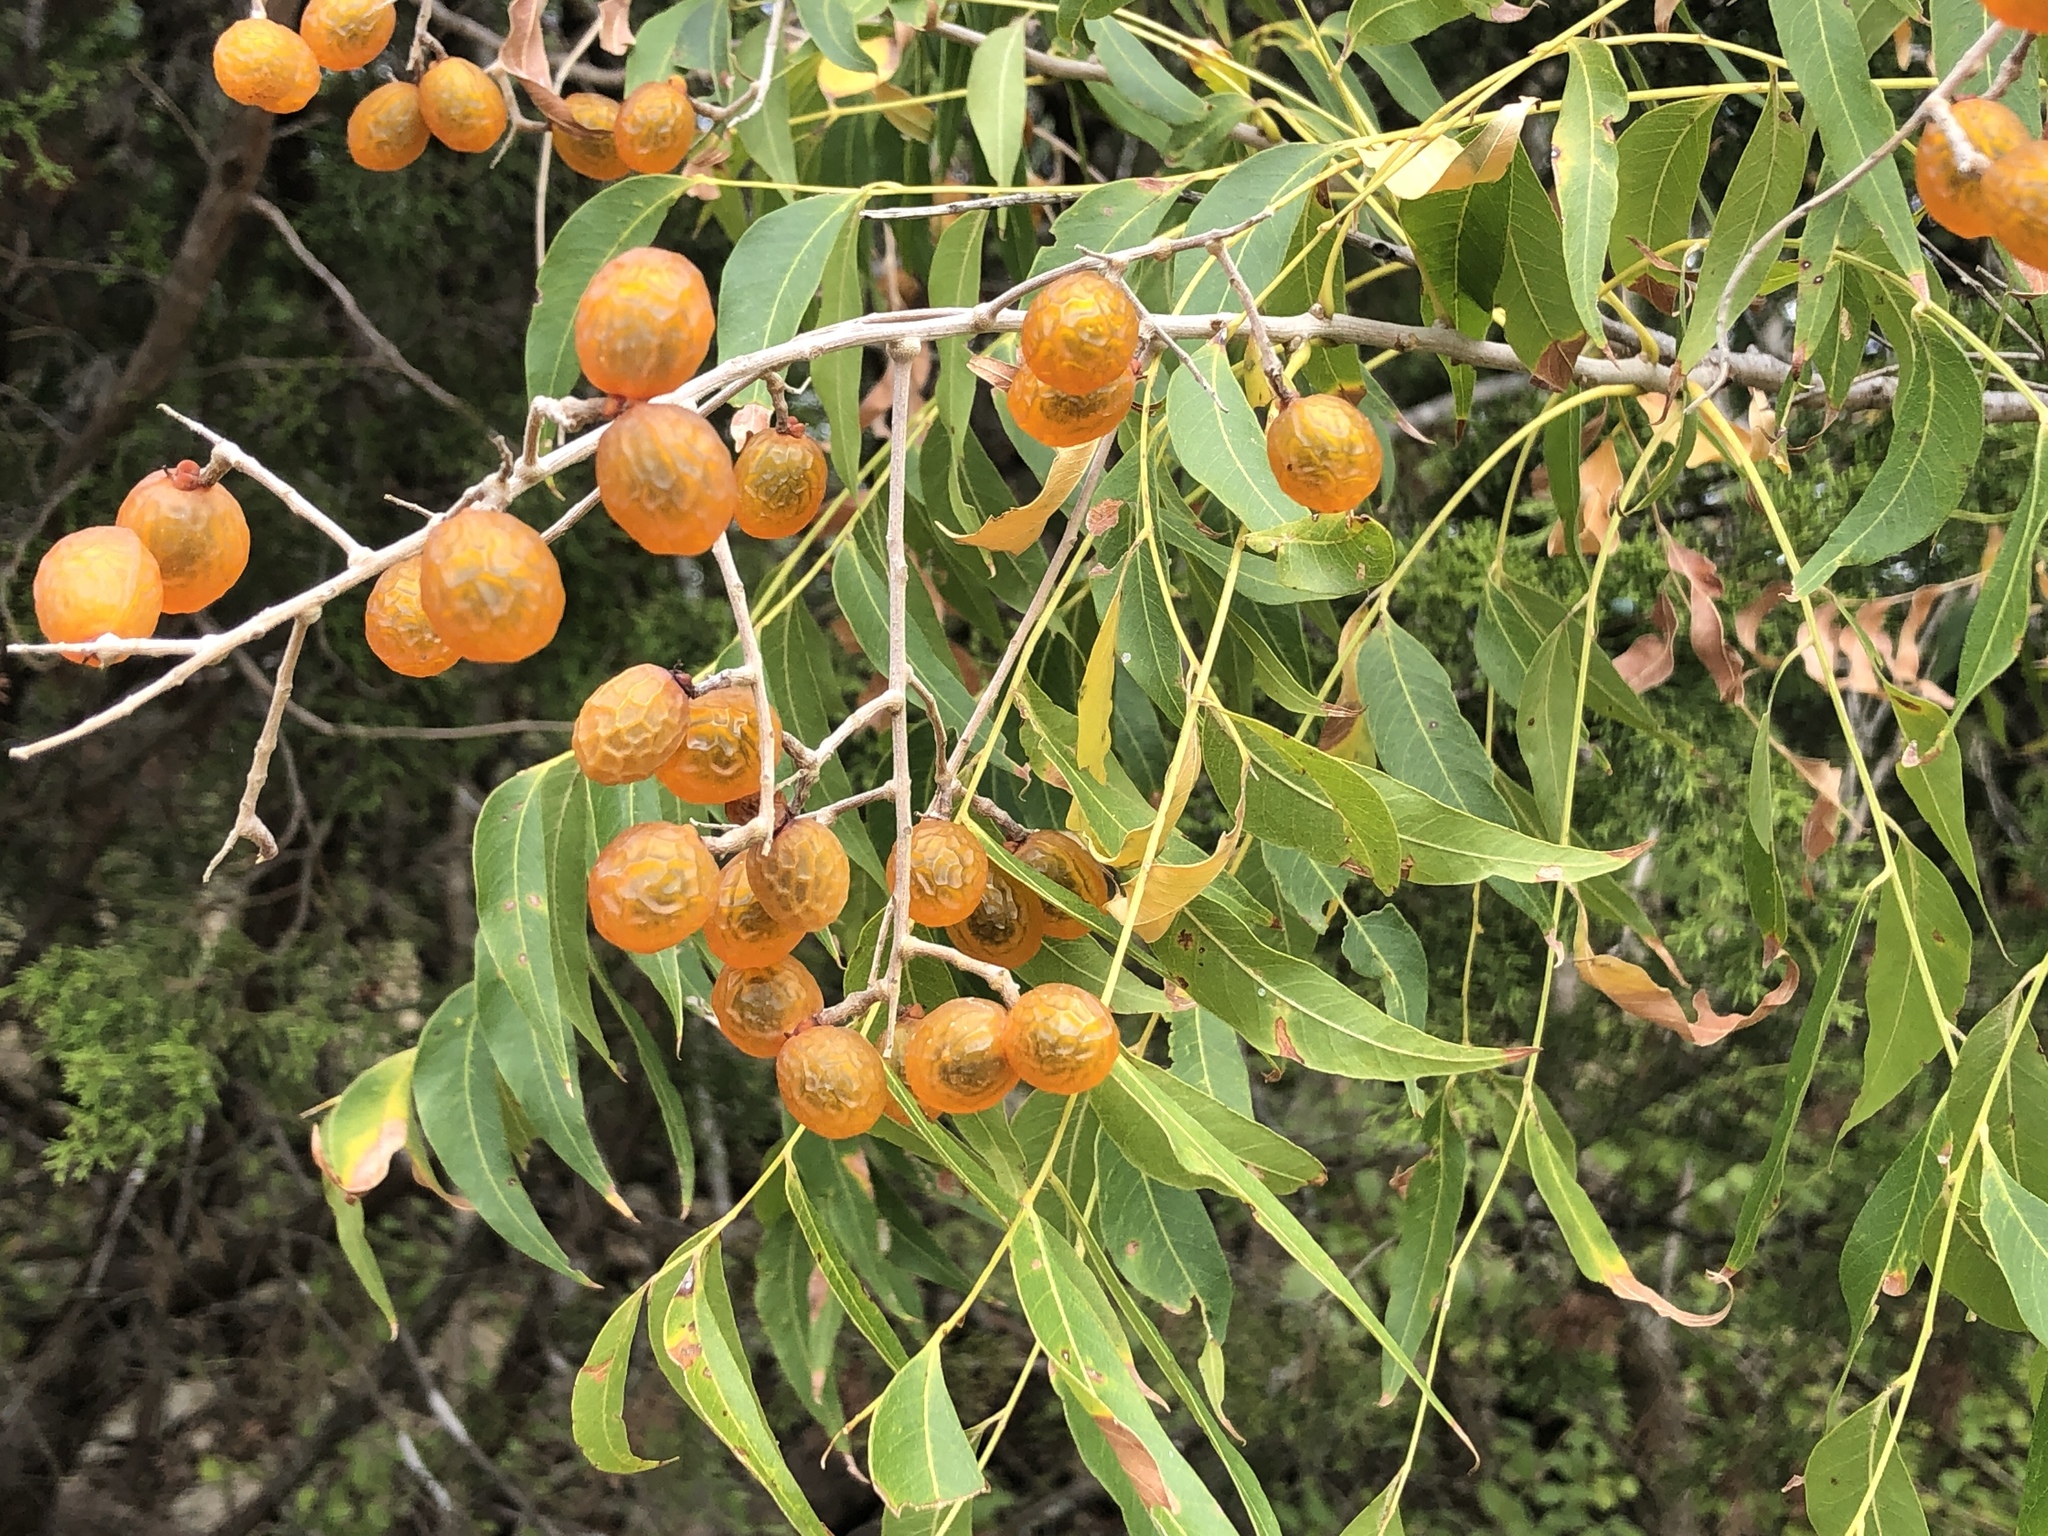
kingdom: Plantae
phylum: Tracheophyta
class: Magnoliopsida
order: Sapindales
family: Sapindaceae
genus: Sapindus
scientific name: Sapindus drummondii
